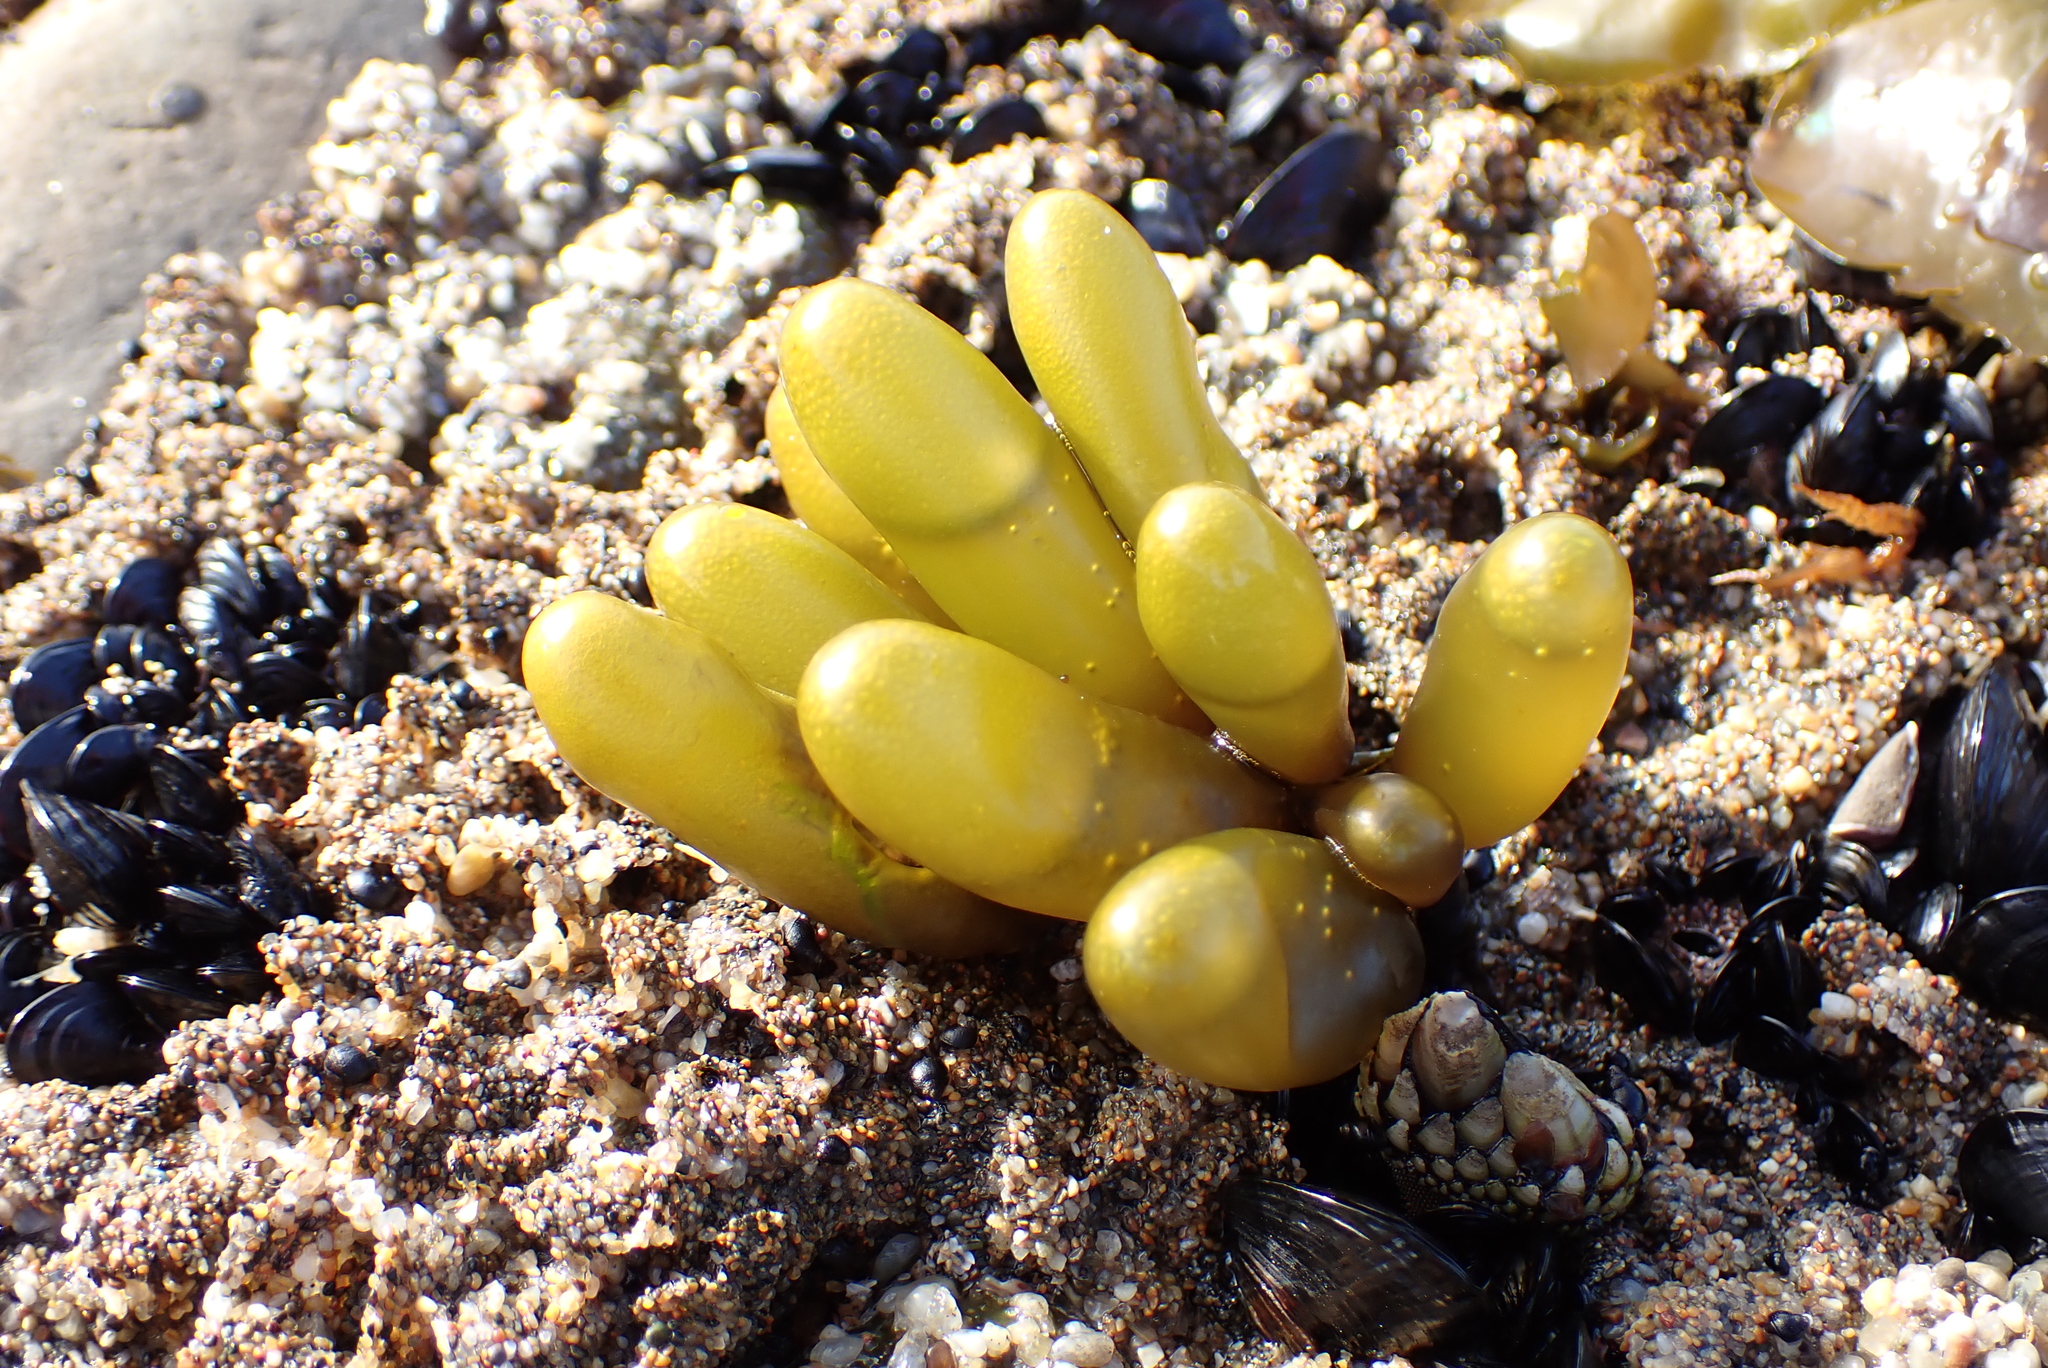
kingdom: Plantae
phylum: Rhodophyta
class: Florideophyceae
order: Palmariales
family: Palmariaceae
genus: Halosaccion
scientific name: Halosaccion glandiforme
